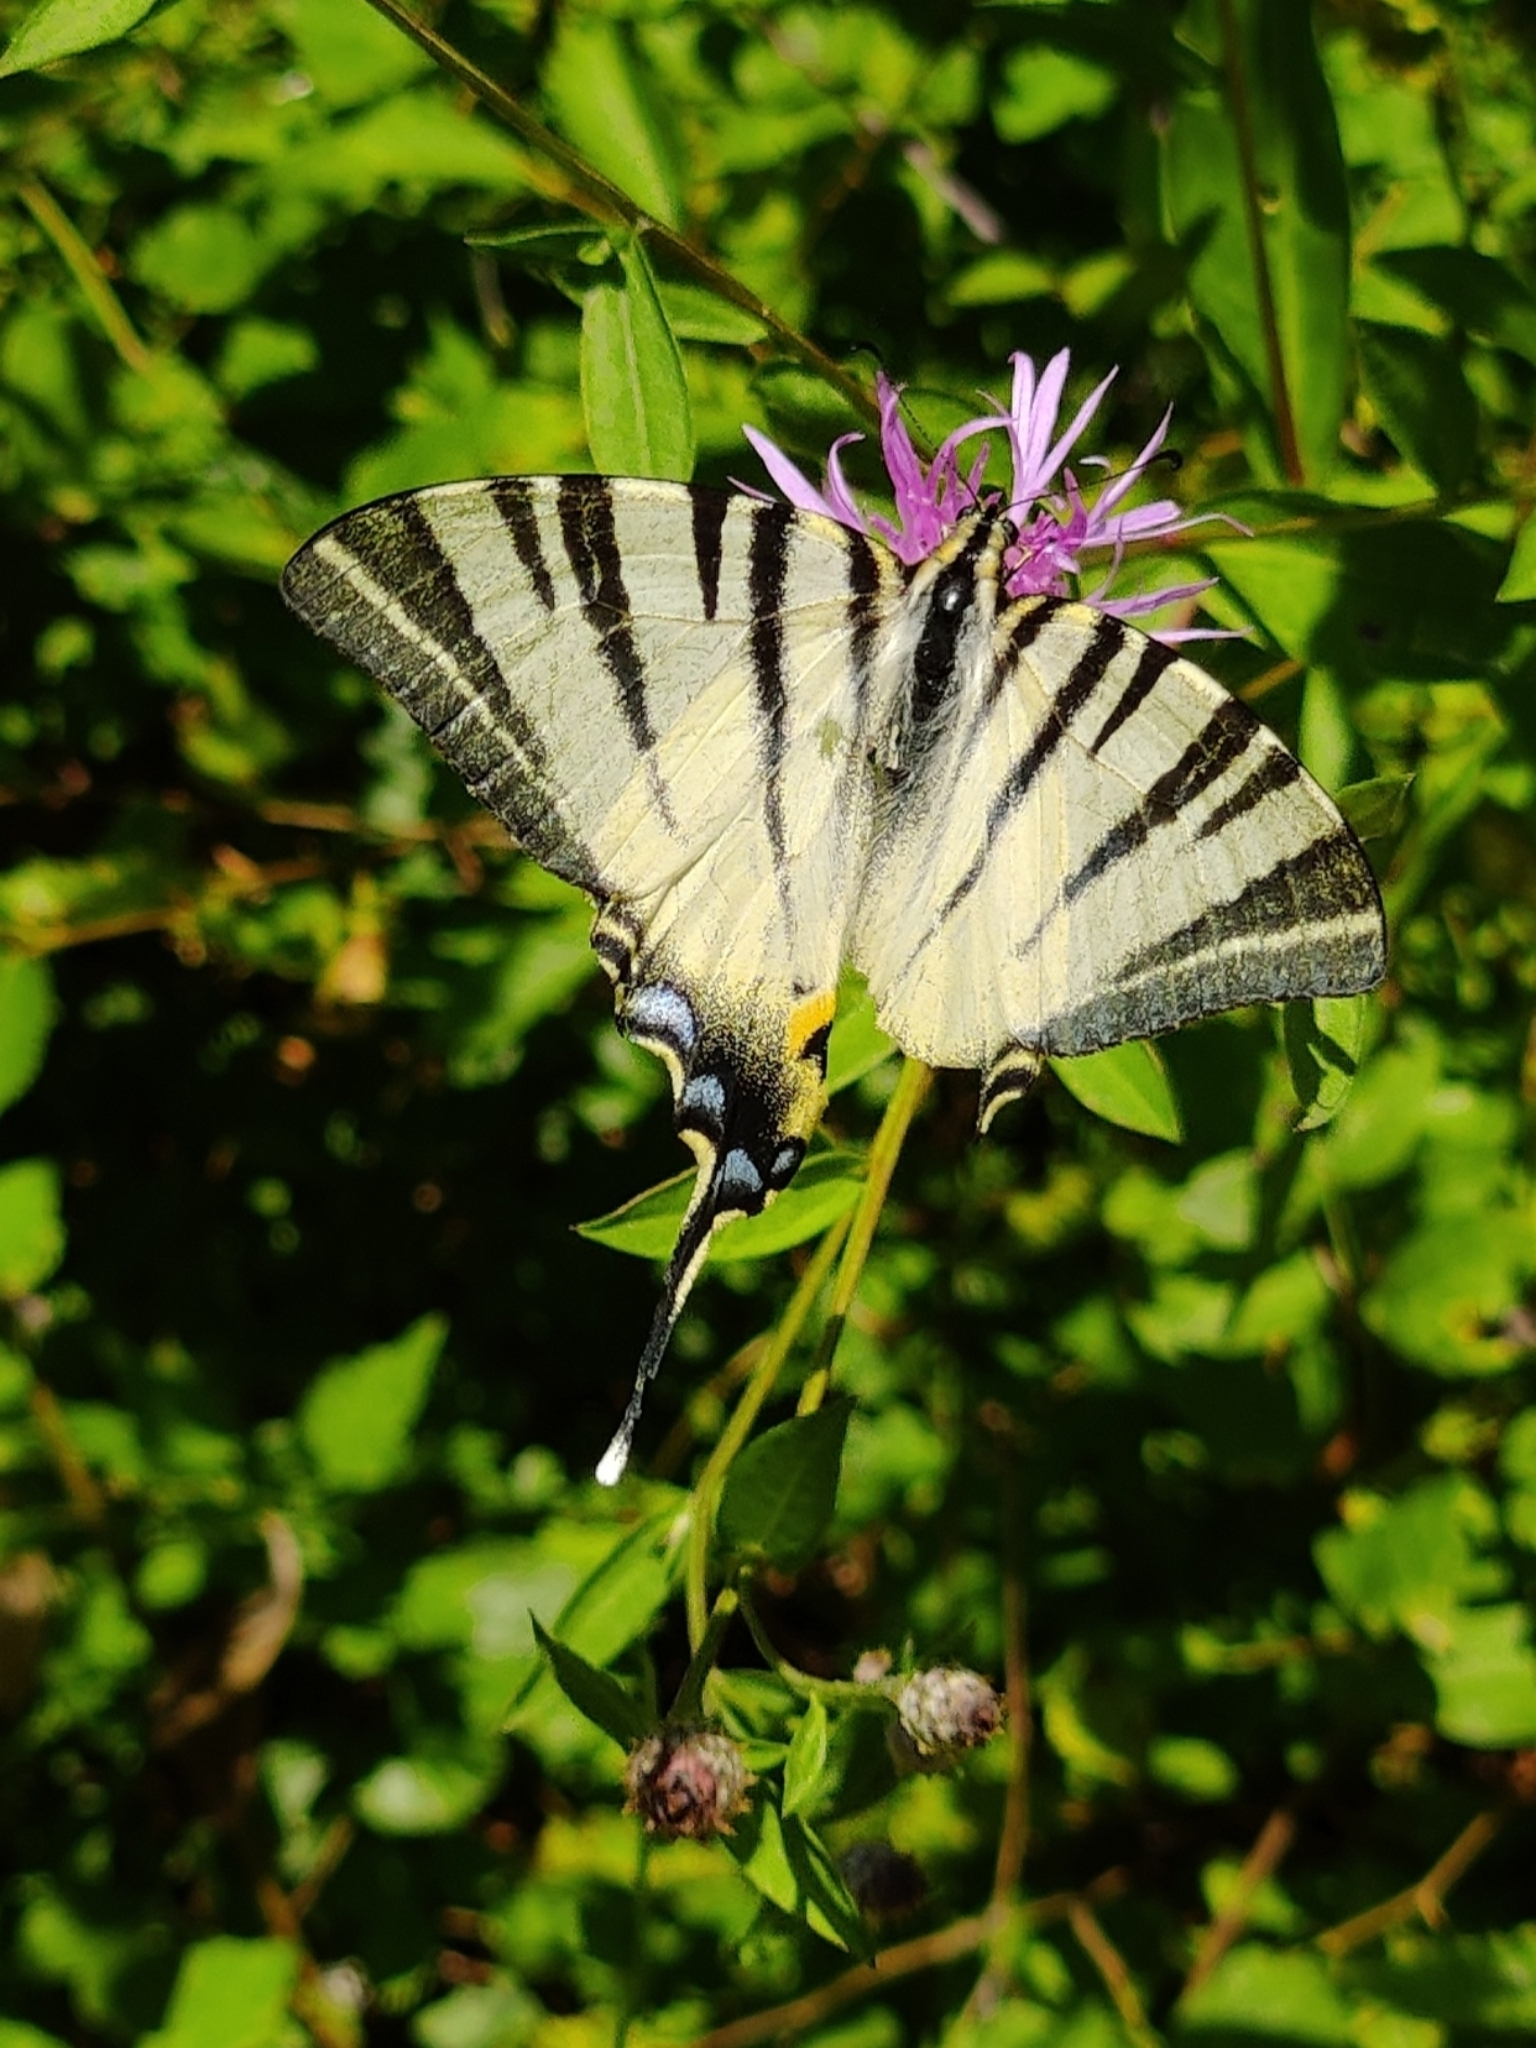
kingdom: Animalia
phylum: Arthropoda
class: Insecta
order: Lepidoptera
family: Papilionidae
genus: Iphiclides
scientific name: Iphiclides podalirius
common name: Scarce swallowtail
